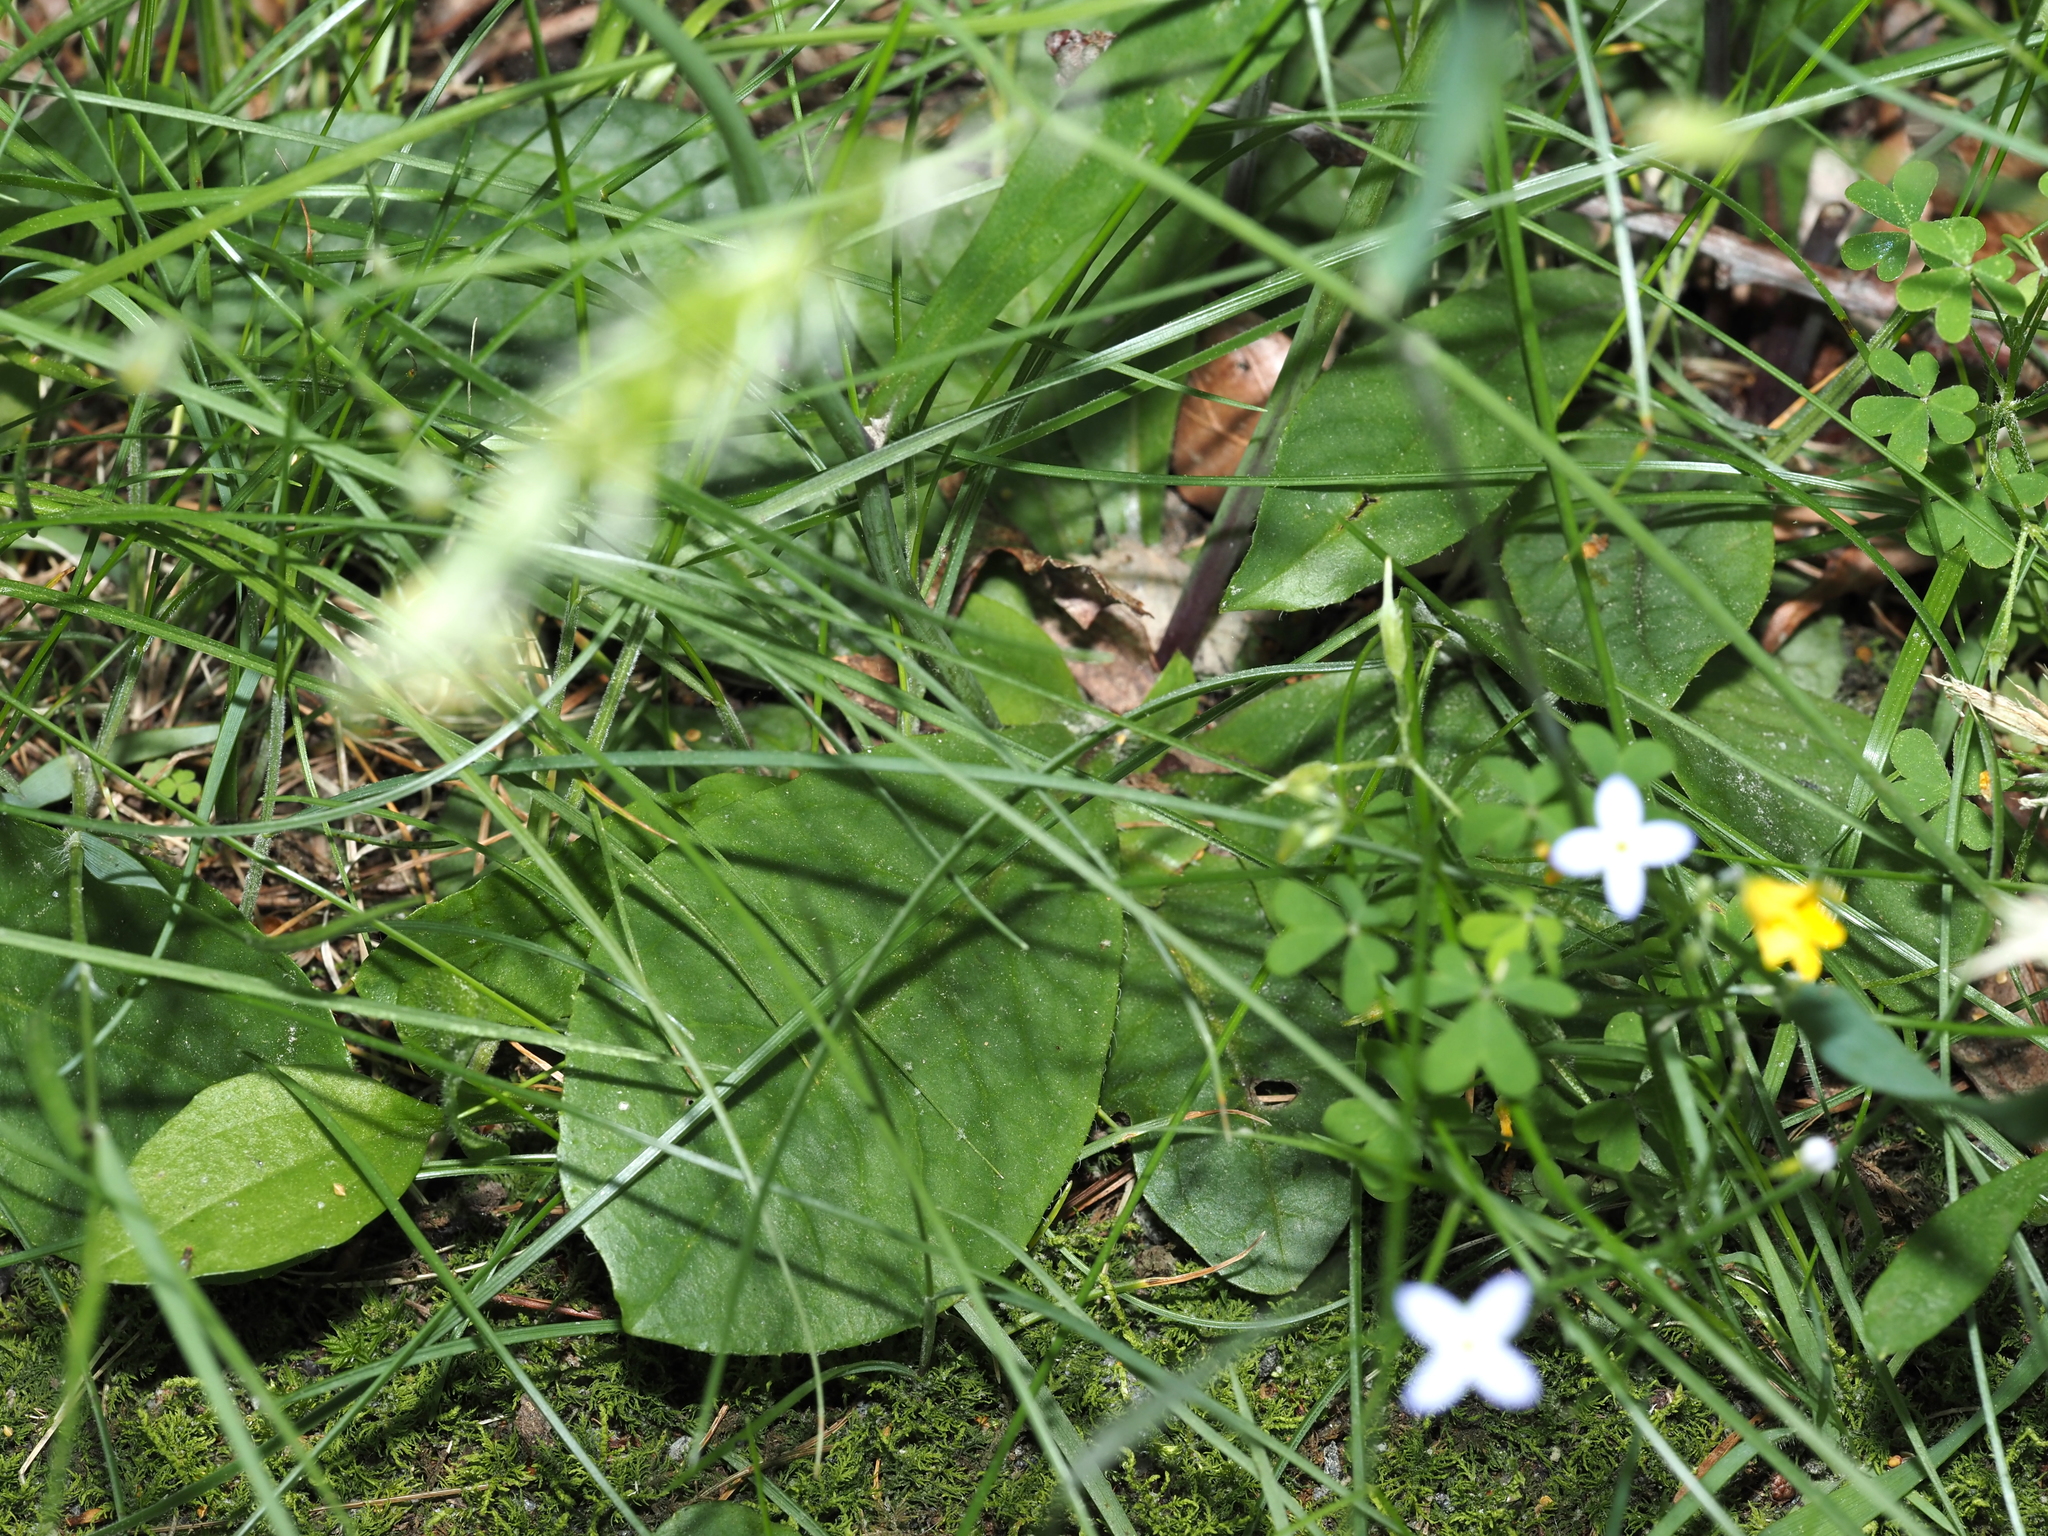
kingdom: Plantae
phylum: Tracheophyta
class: Magnoliopsida
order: Asterales
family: Asteraceae
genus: Hieracium
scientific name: Hieracium venosum
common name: Rattlesnake hawkweed
